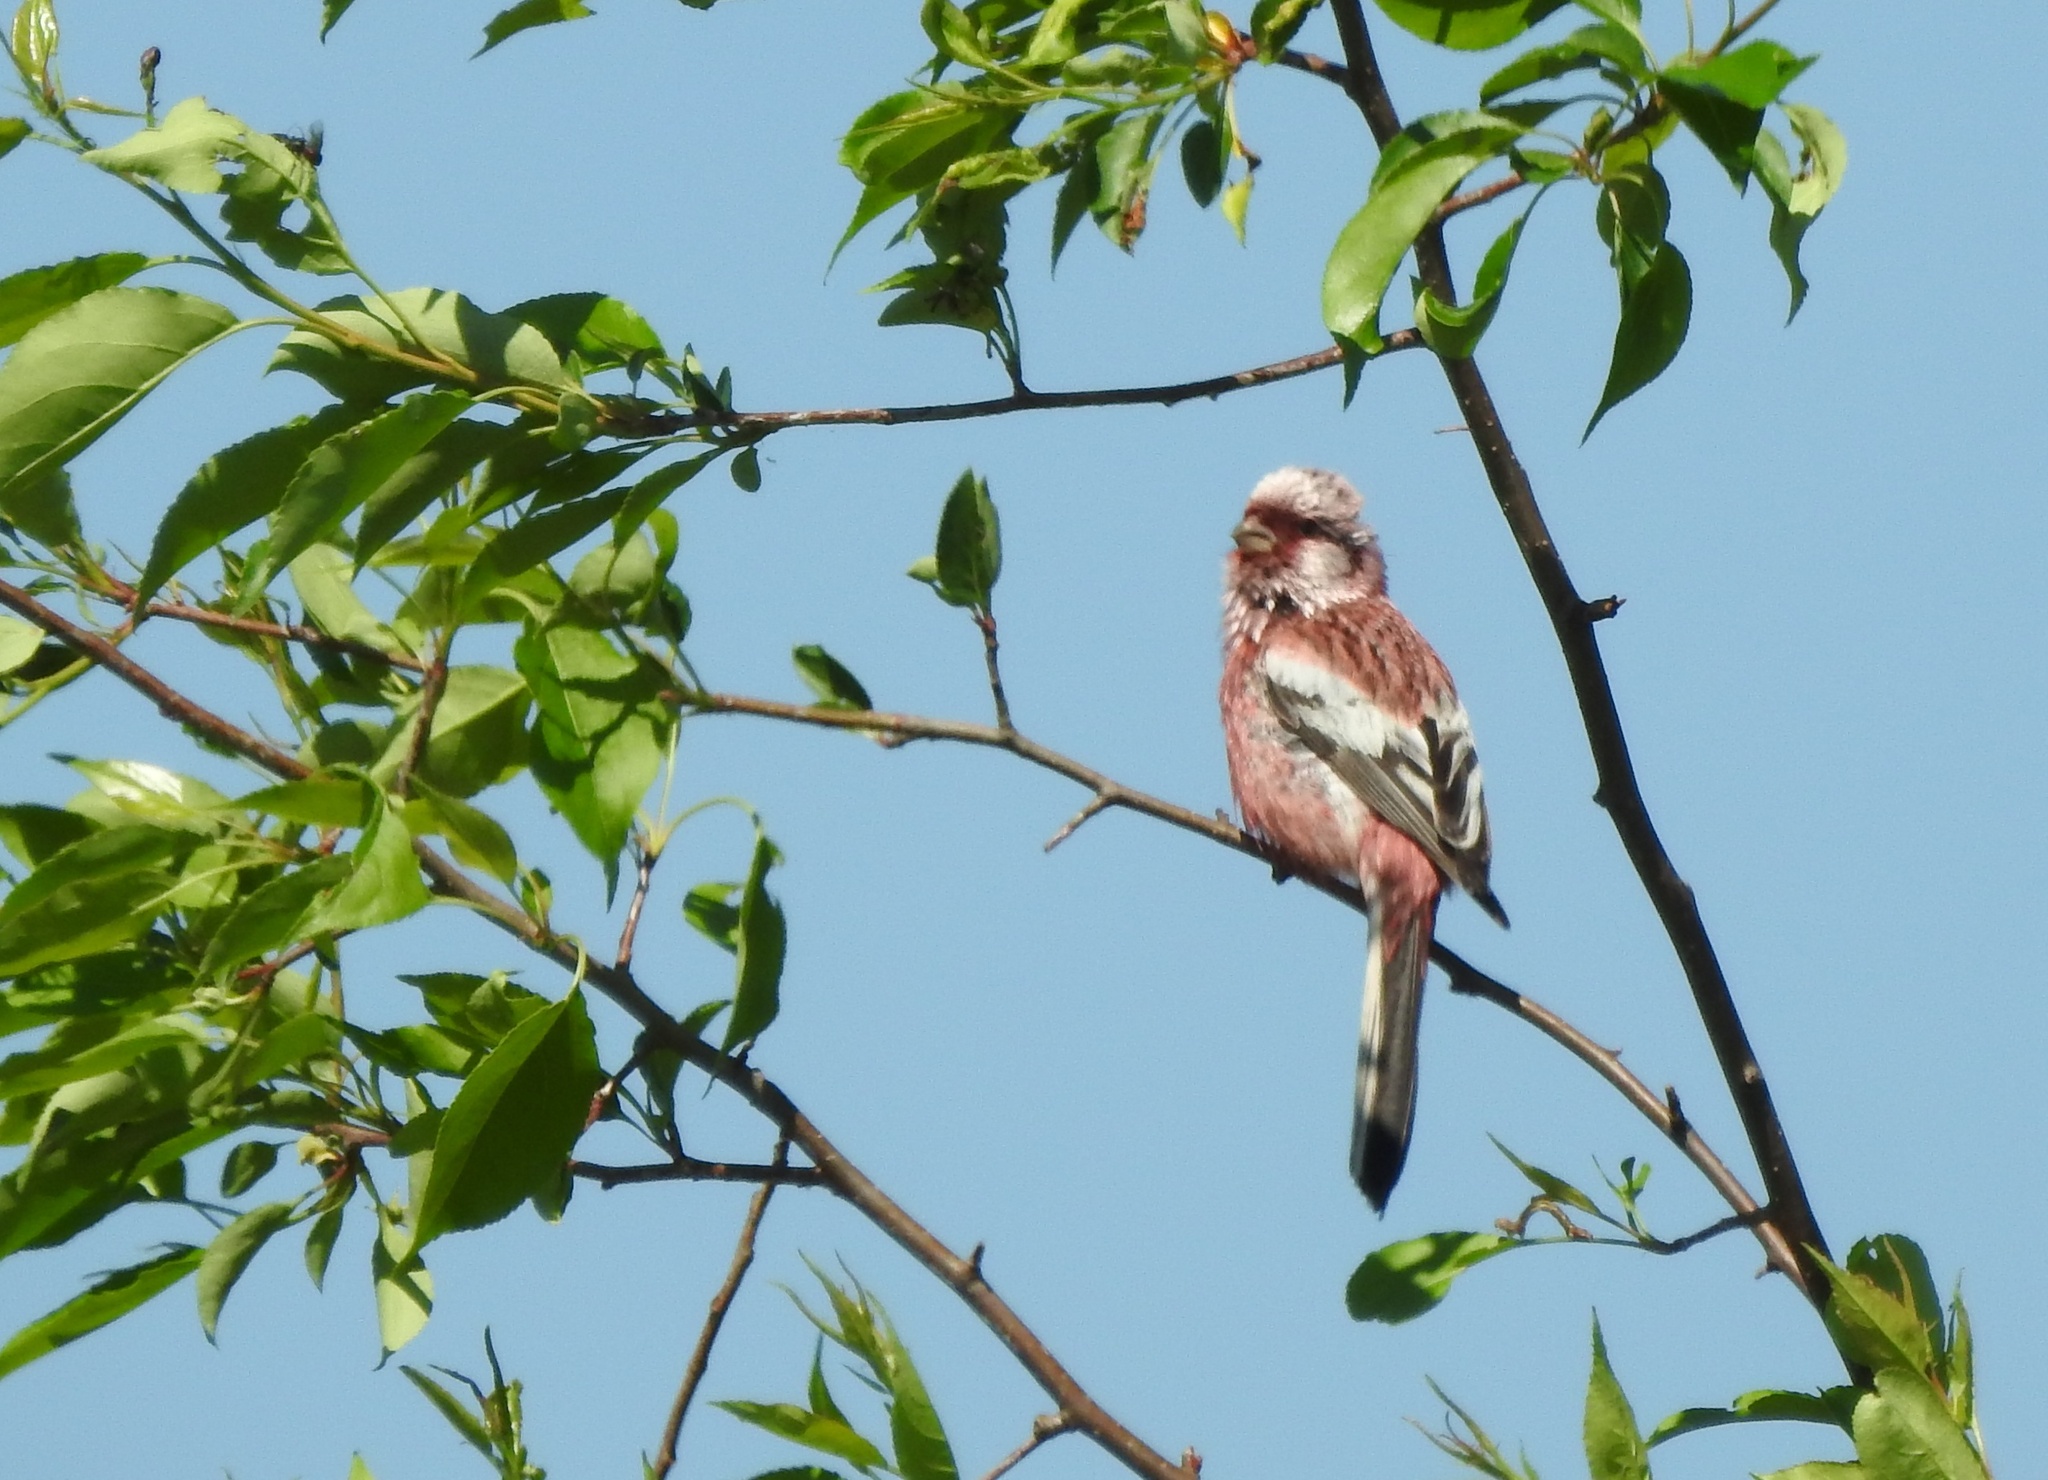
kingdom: Animalia
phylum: Chordata
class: Aves
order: Passeriformes
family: Fringillidae
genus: Carpodacus
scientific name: Carpodacus sibiricus
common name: Long-tailed rosefinch
